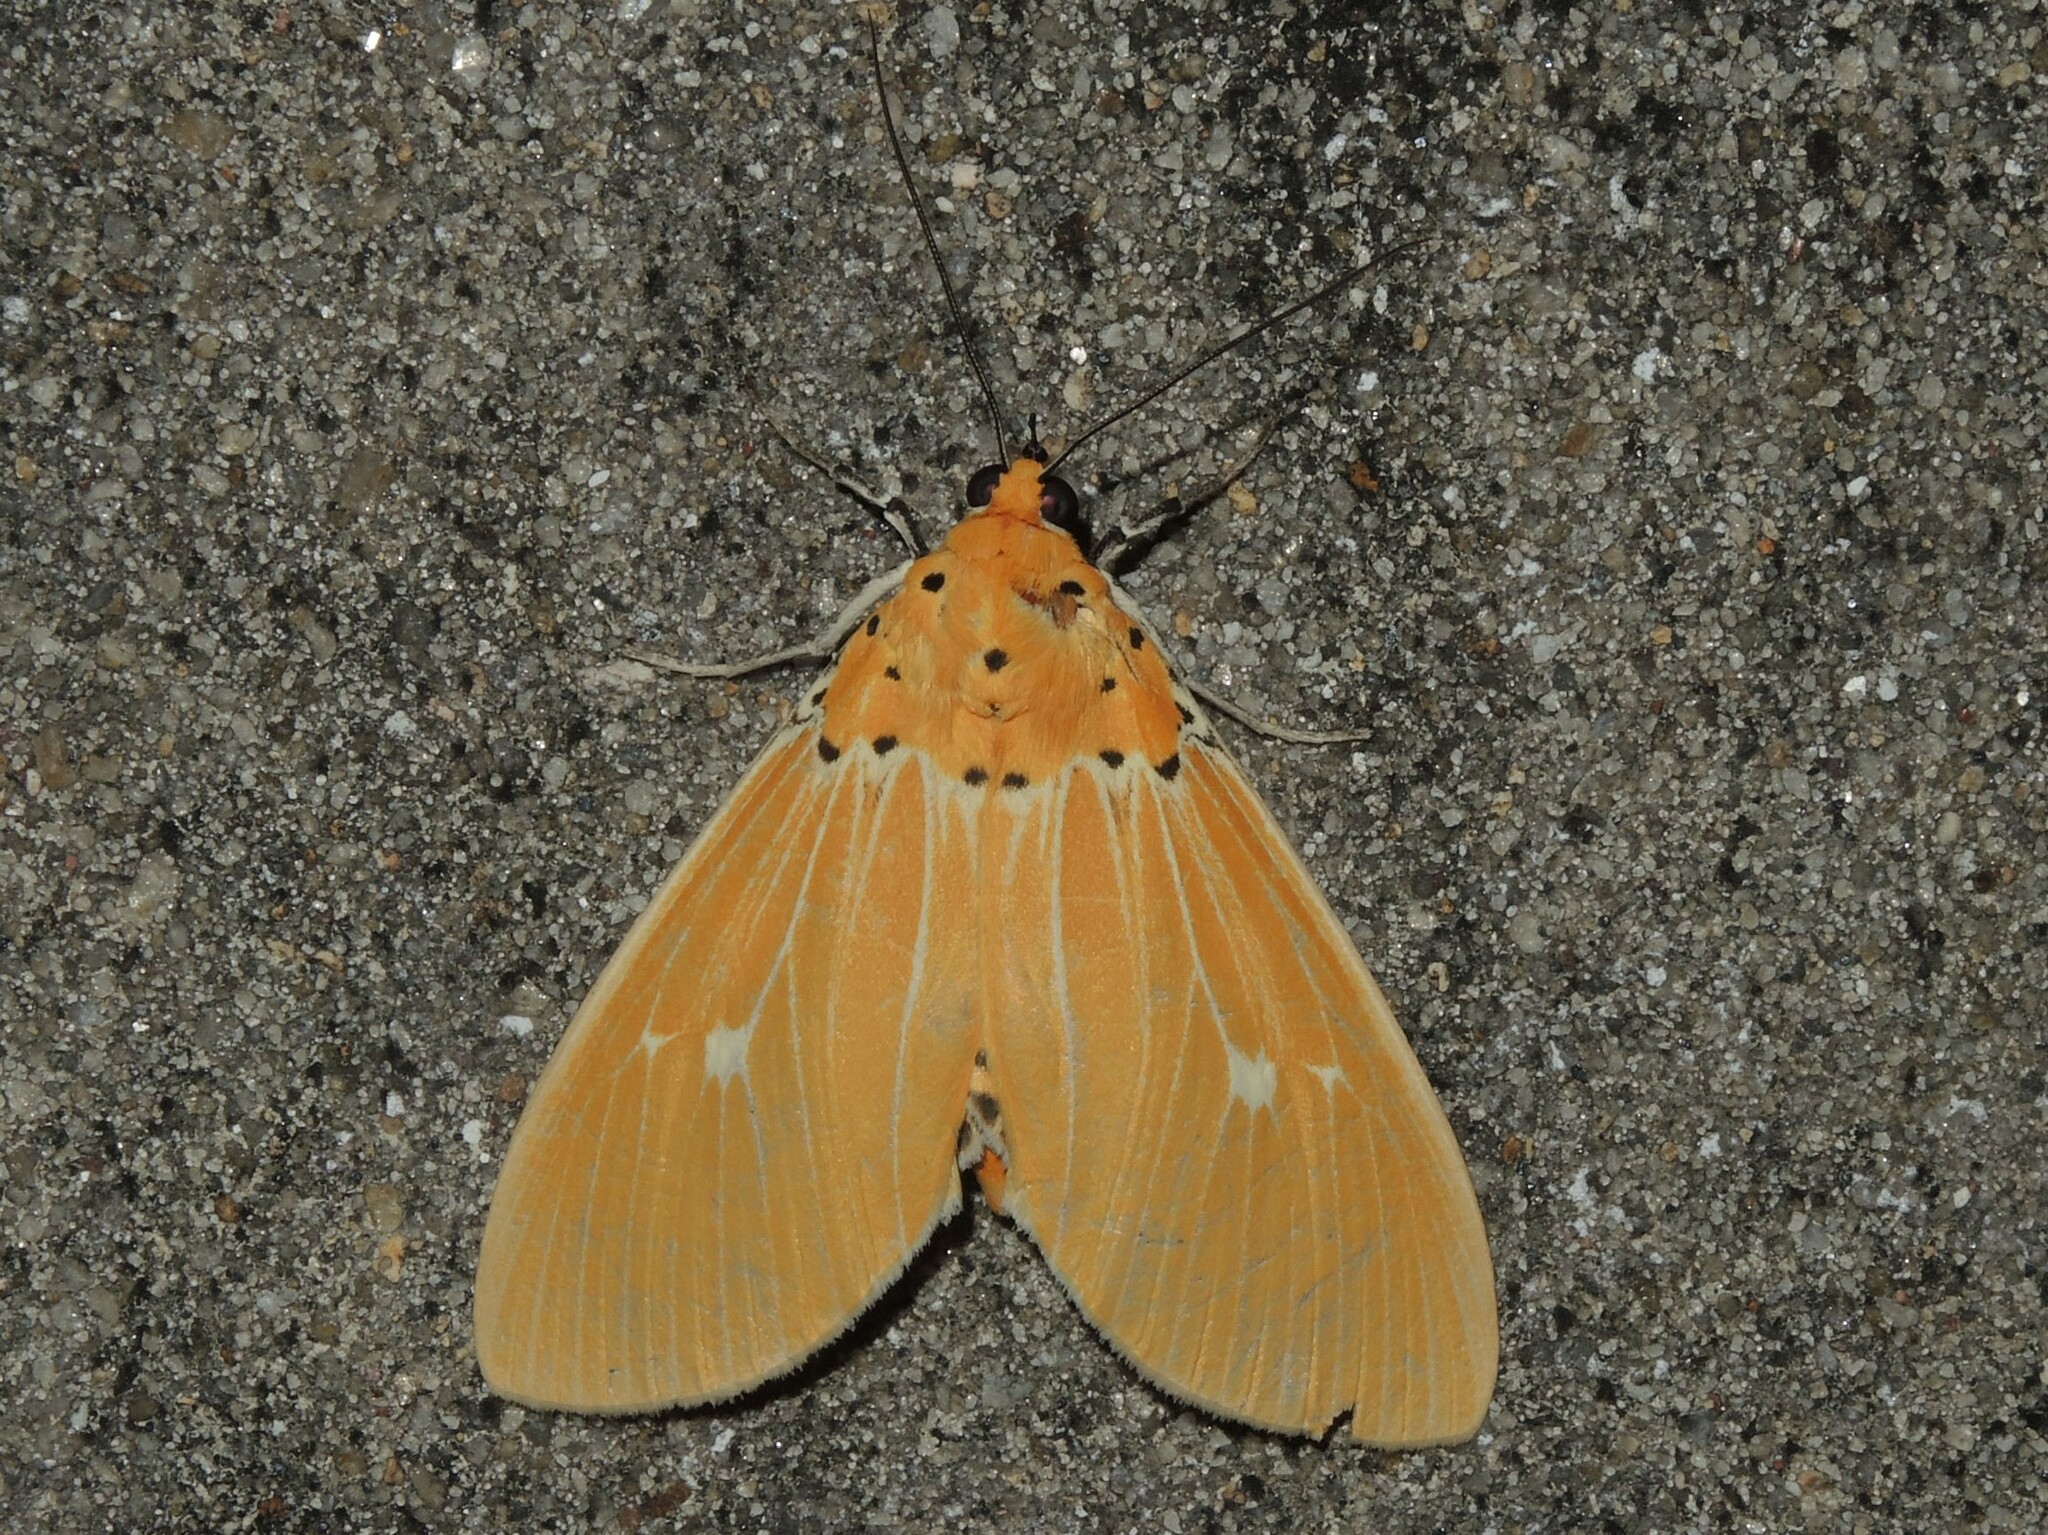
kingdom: Animalia
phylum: Arthropoda
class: Insecta
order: Lepidoptera
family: Erebidae
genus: Asota
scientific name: Asota sericea
